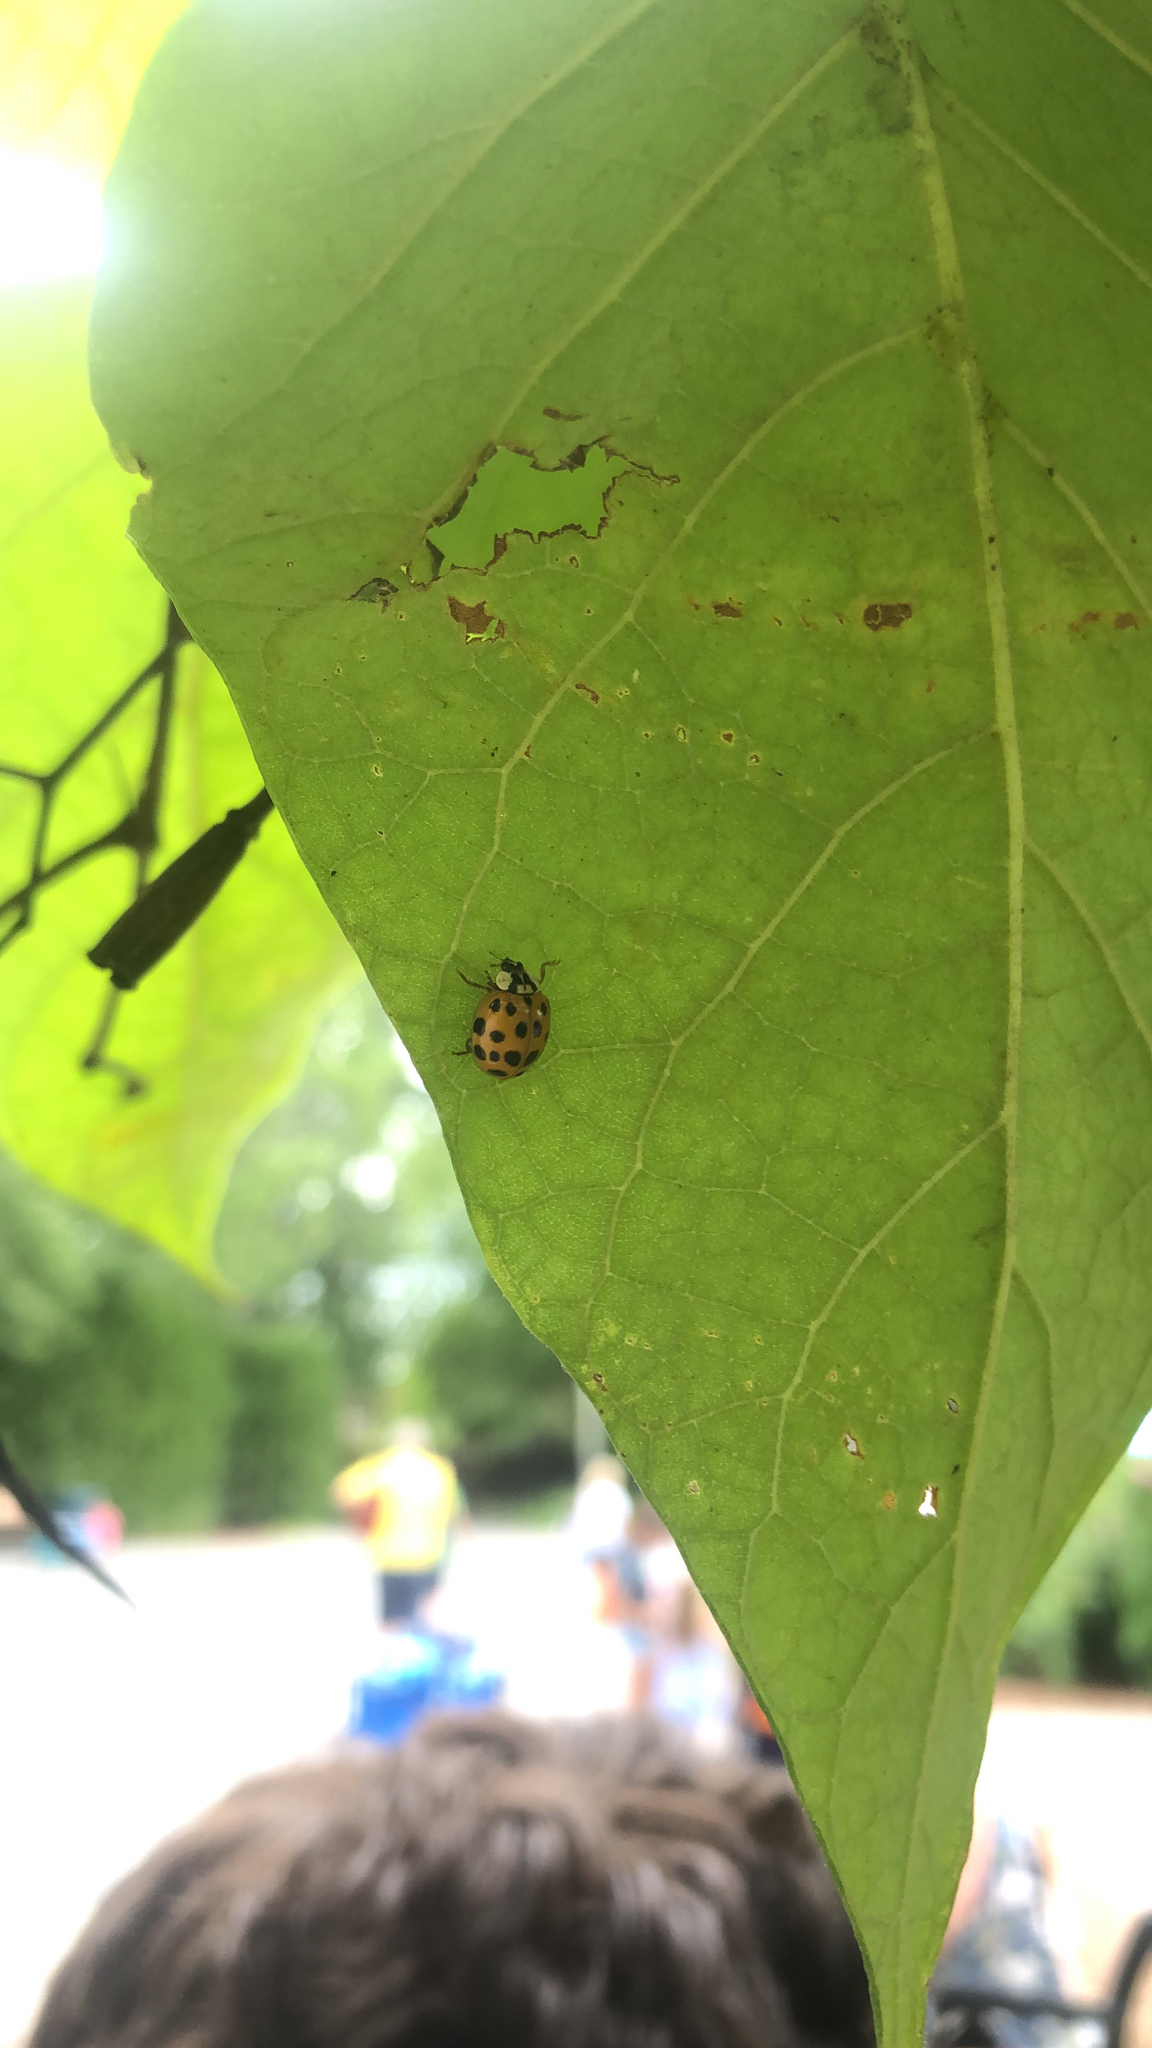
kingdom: Animalia
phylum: Arthropoda
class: Insecta
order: Coleoptera
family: Coccinellidae
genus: Harmonia
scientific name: Harmonia axyridis
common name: Harlequin ladybird
